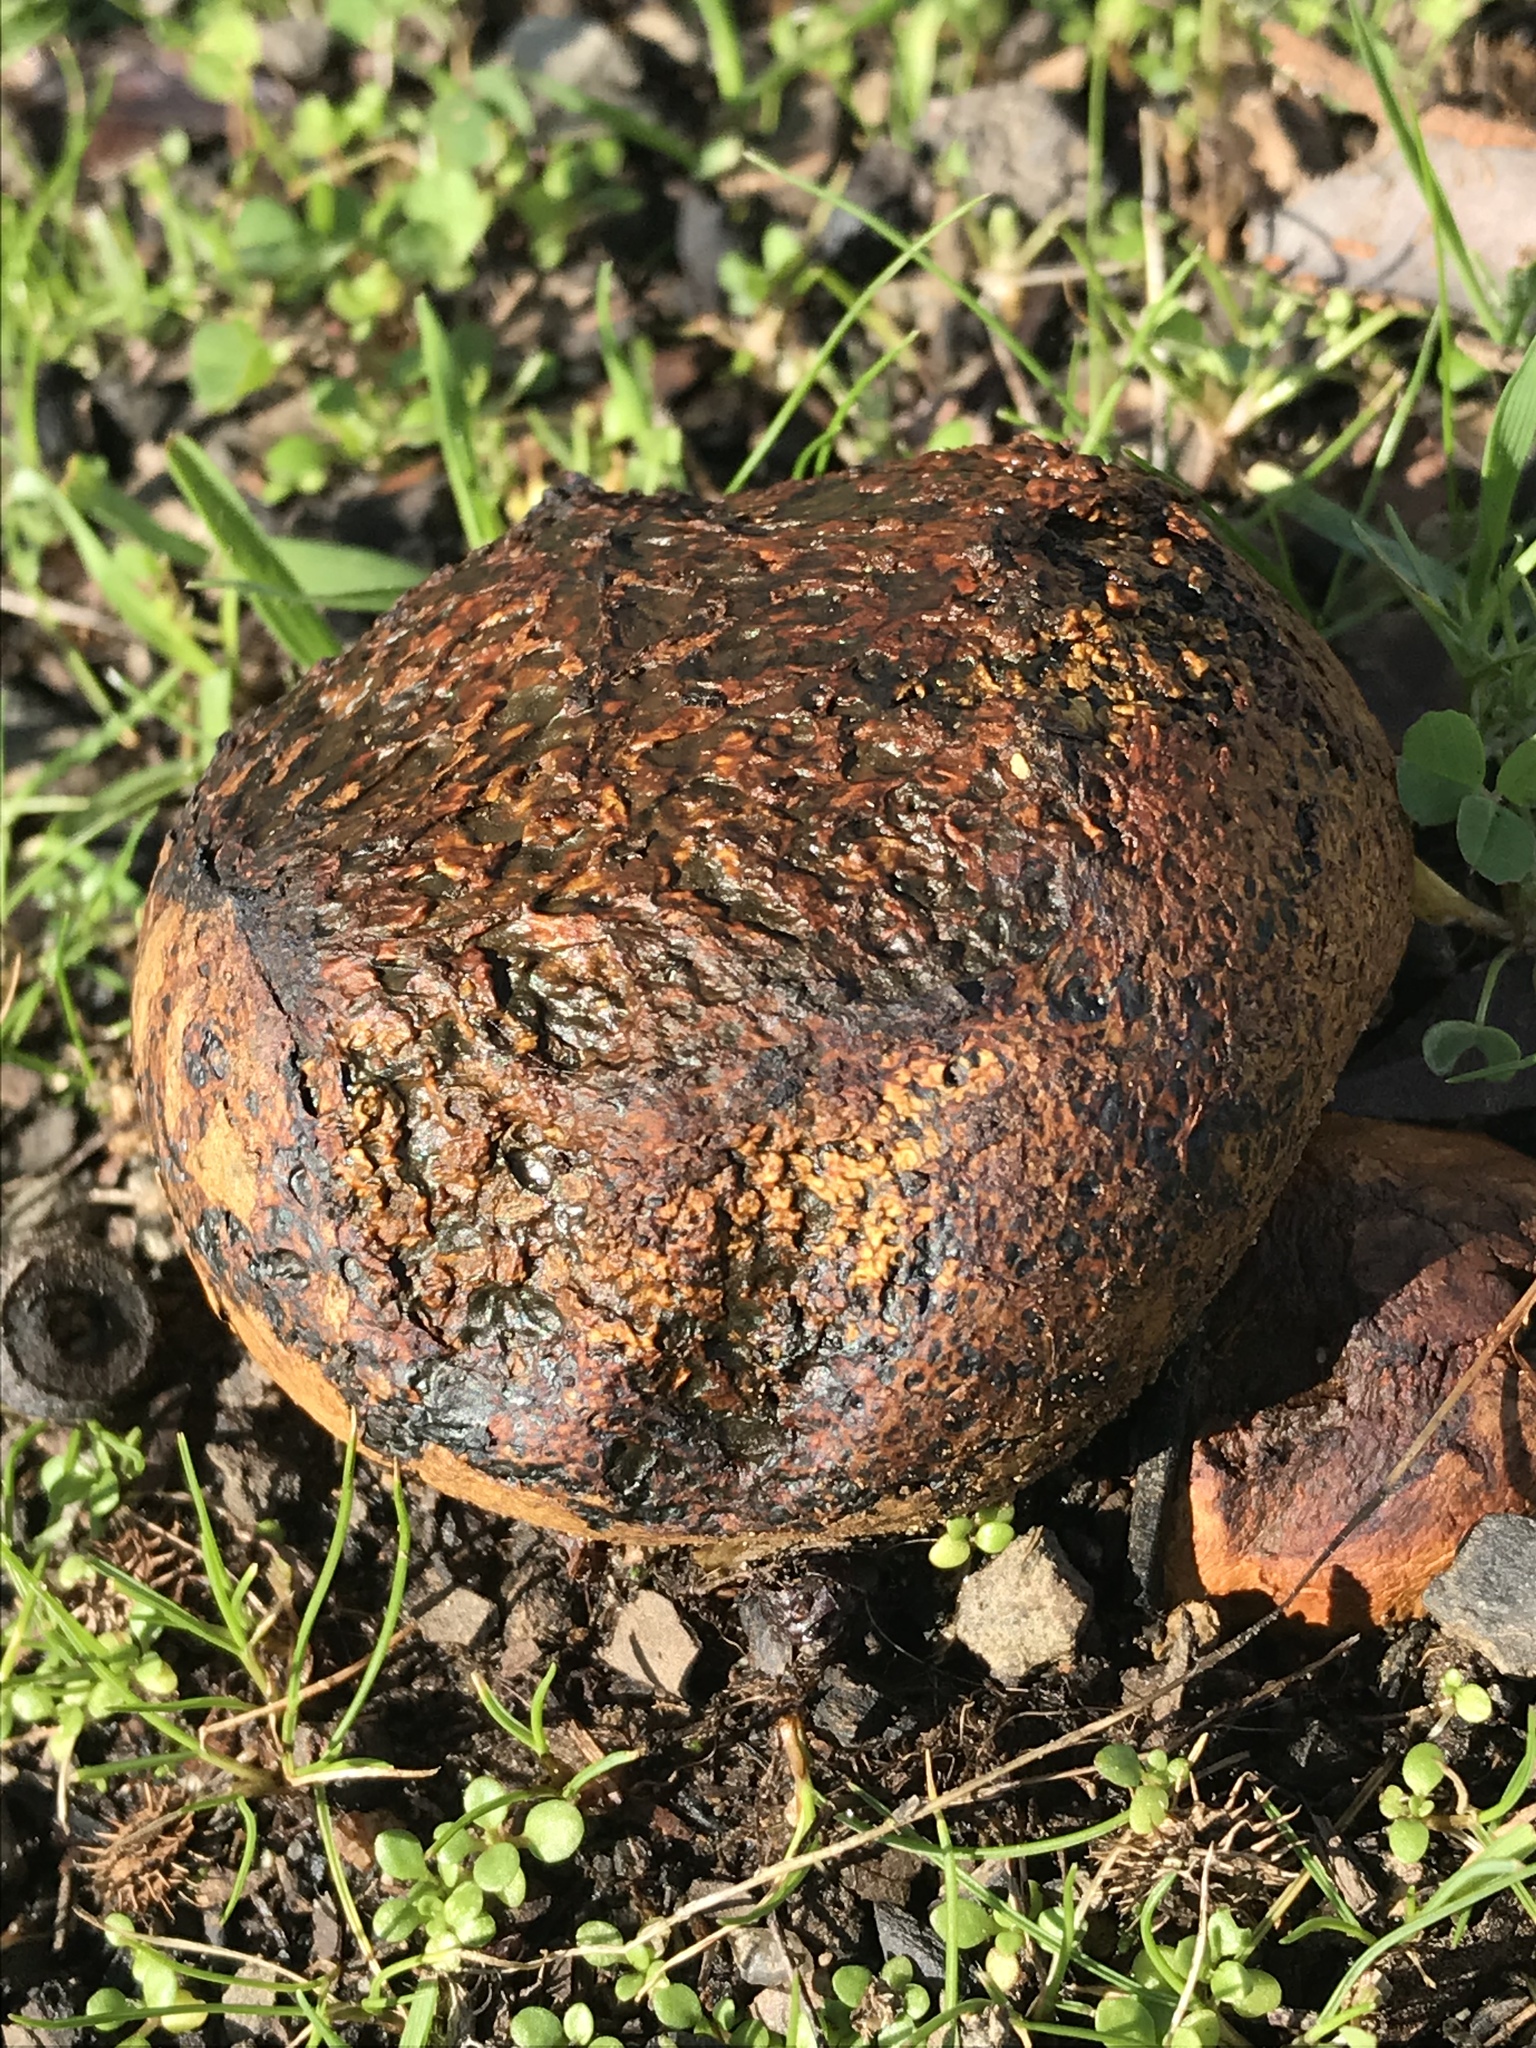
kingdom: Fungi
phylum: Basidiomycota
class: Agaricomycetes
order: Boletales
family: Sclerodermataceae
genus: Pisolithus
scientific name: Pisolithus arhizus
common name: Dyeball
